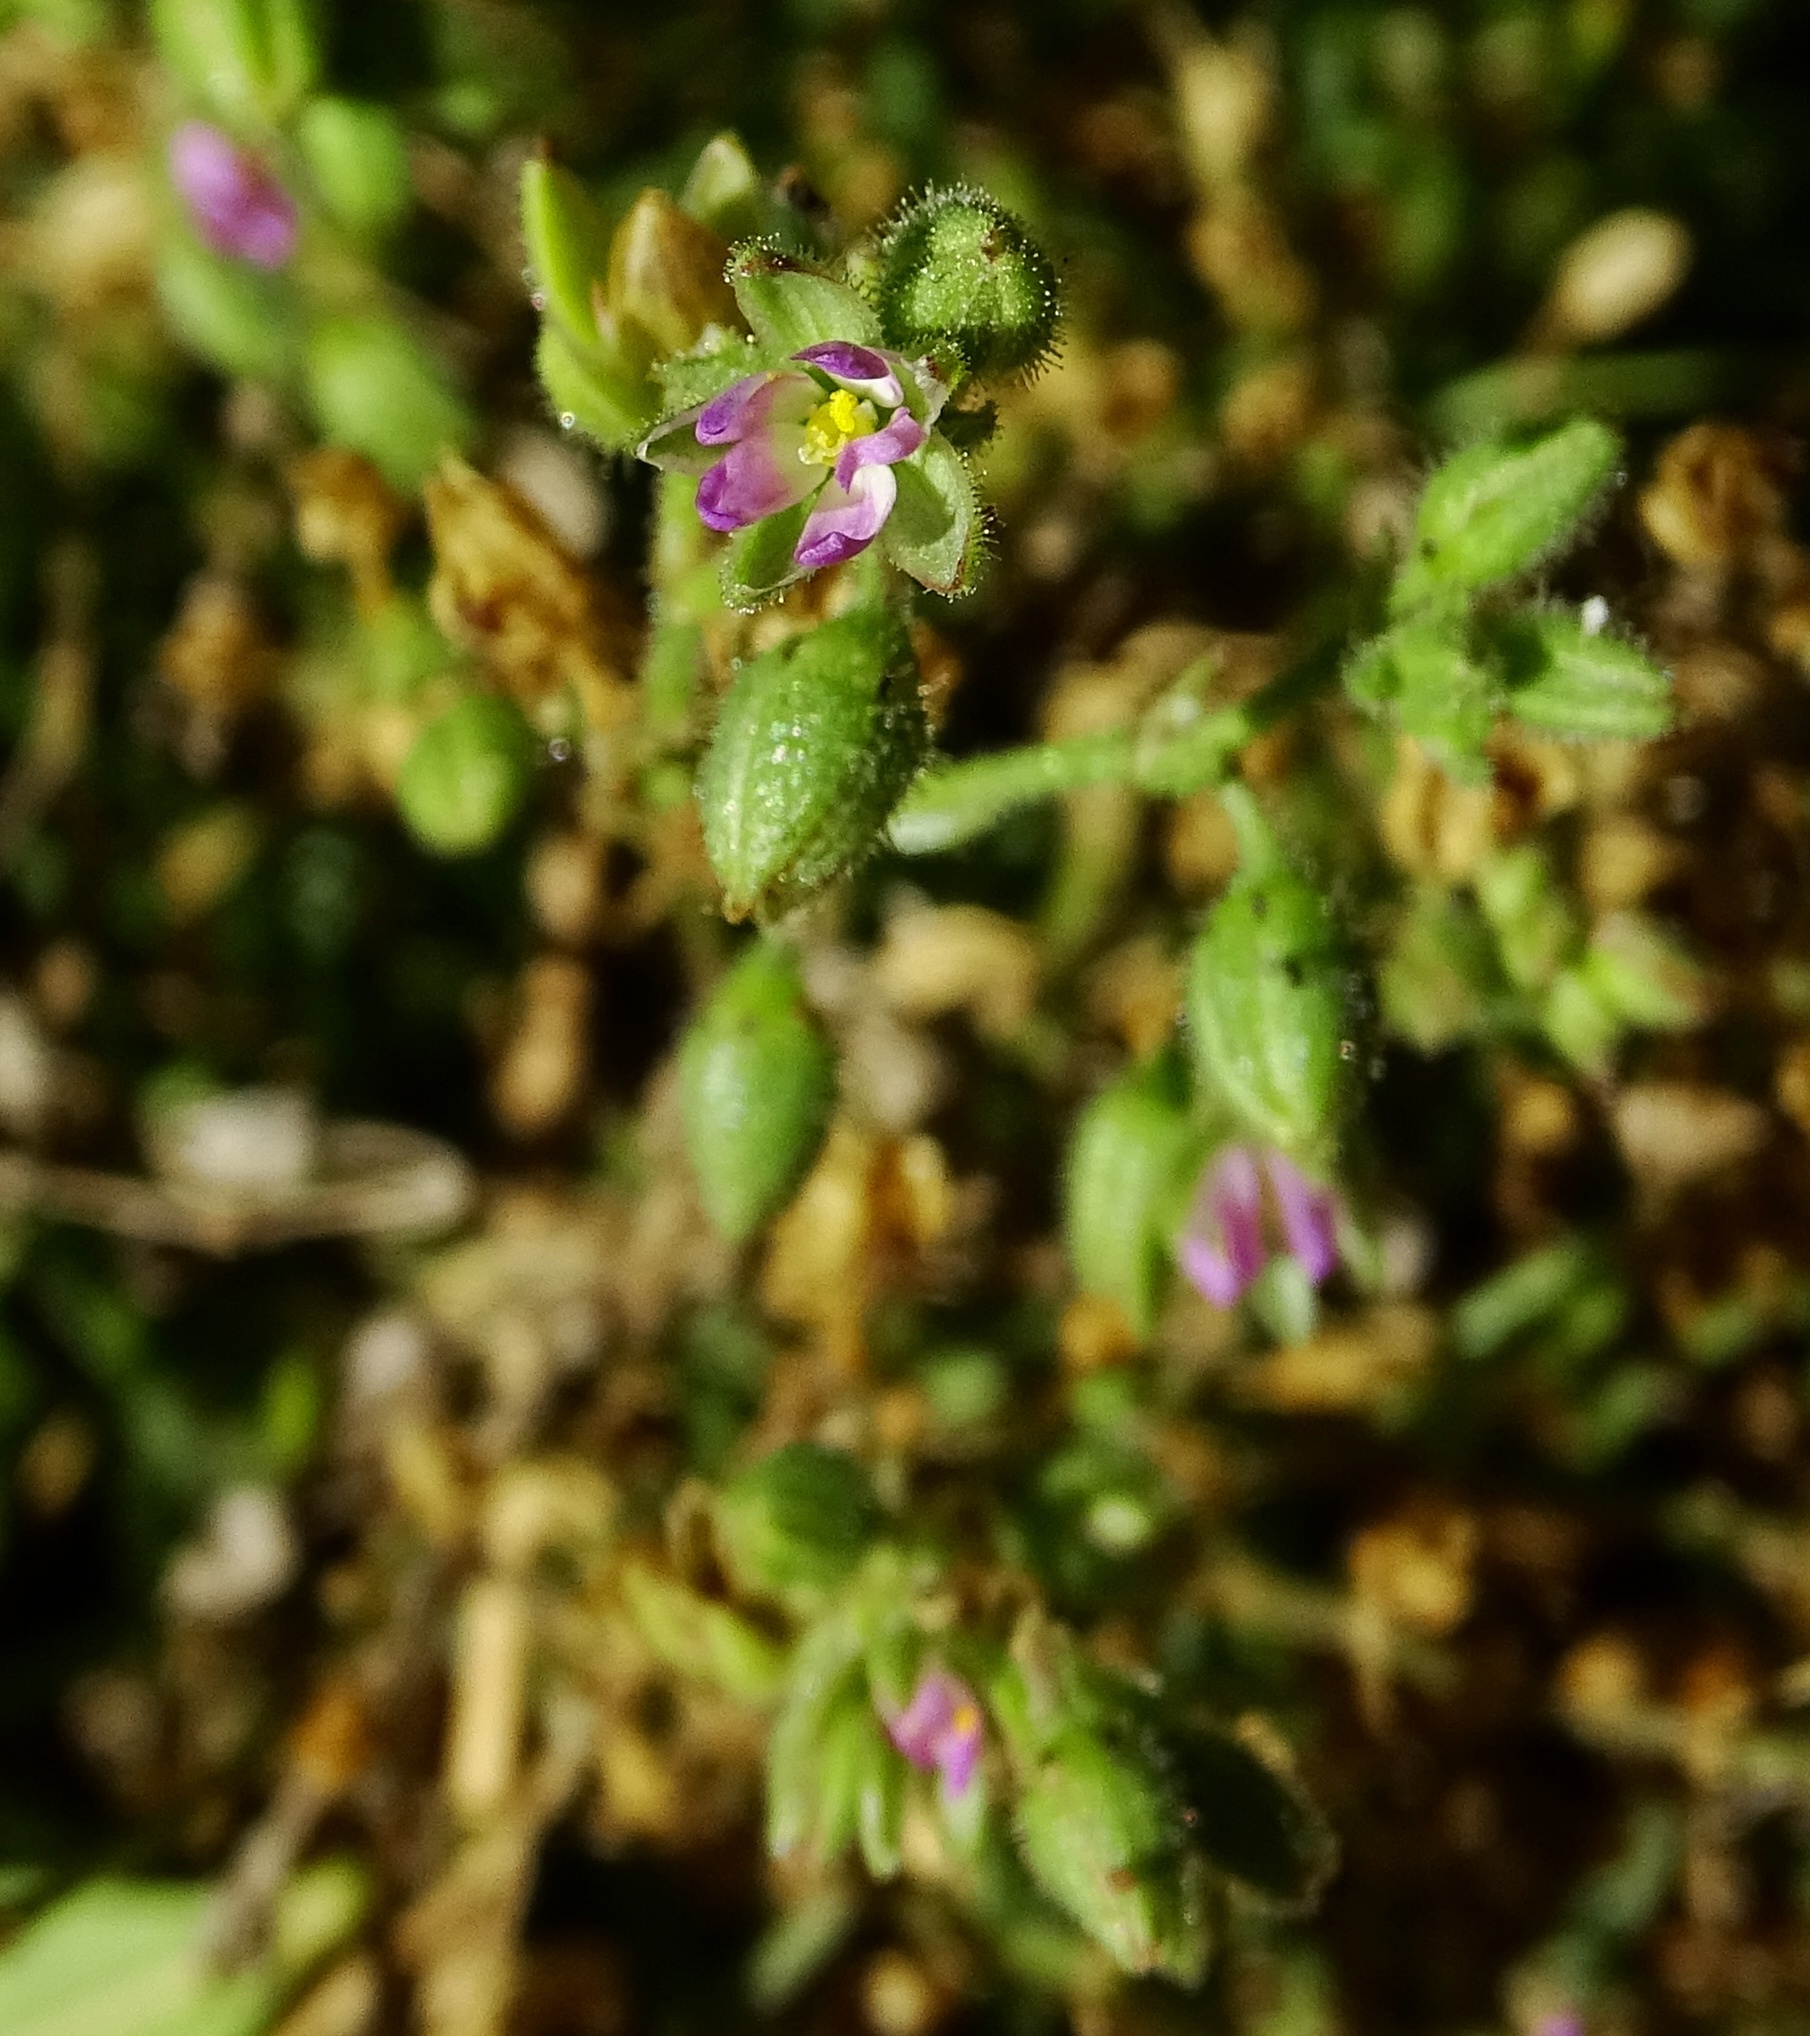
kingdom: Plantae
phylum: Tracheophyta
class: Magnoliopsida
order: Caryophyllales
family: Caryophyllaceae
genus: Spergularia
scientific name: Spergularia marina
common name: Lesser sea-spurrey
